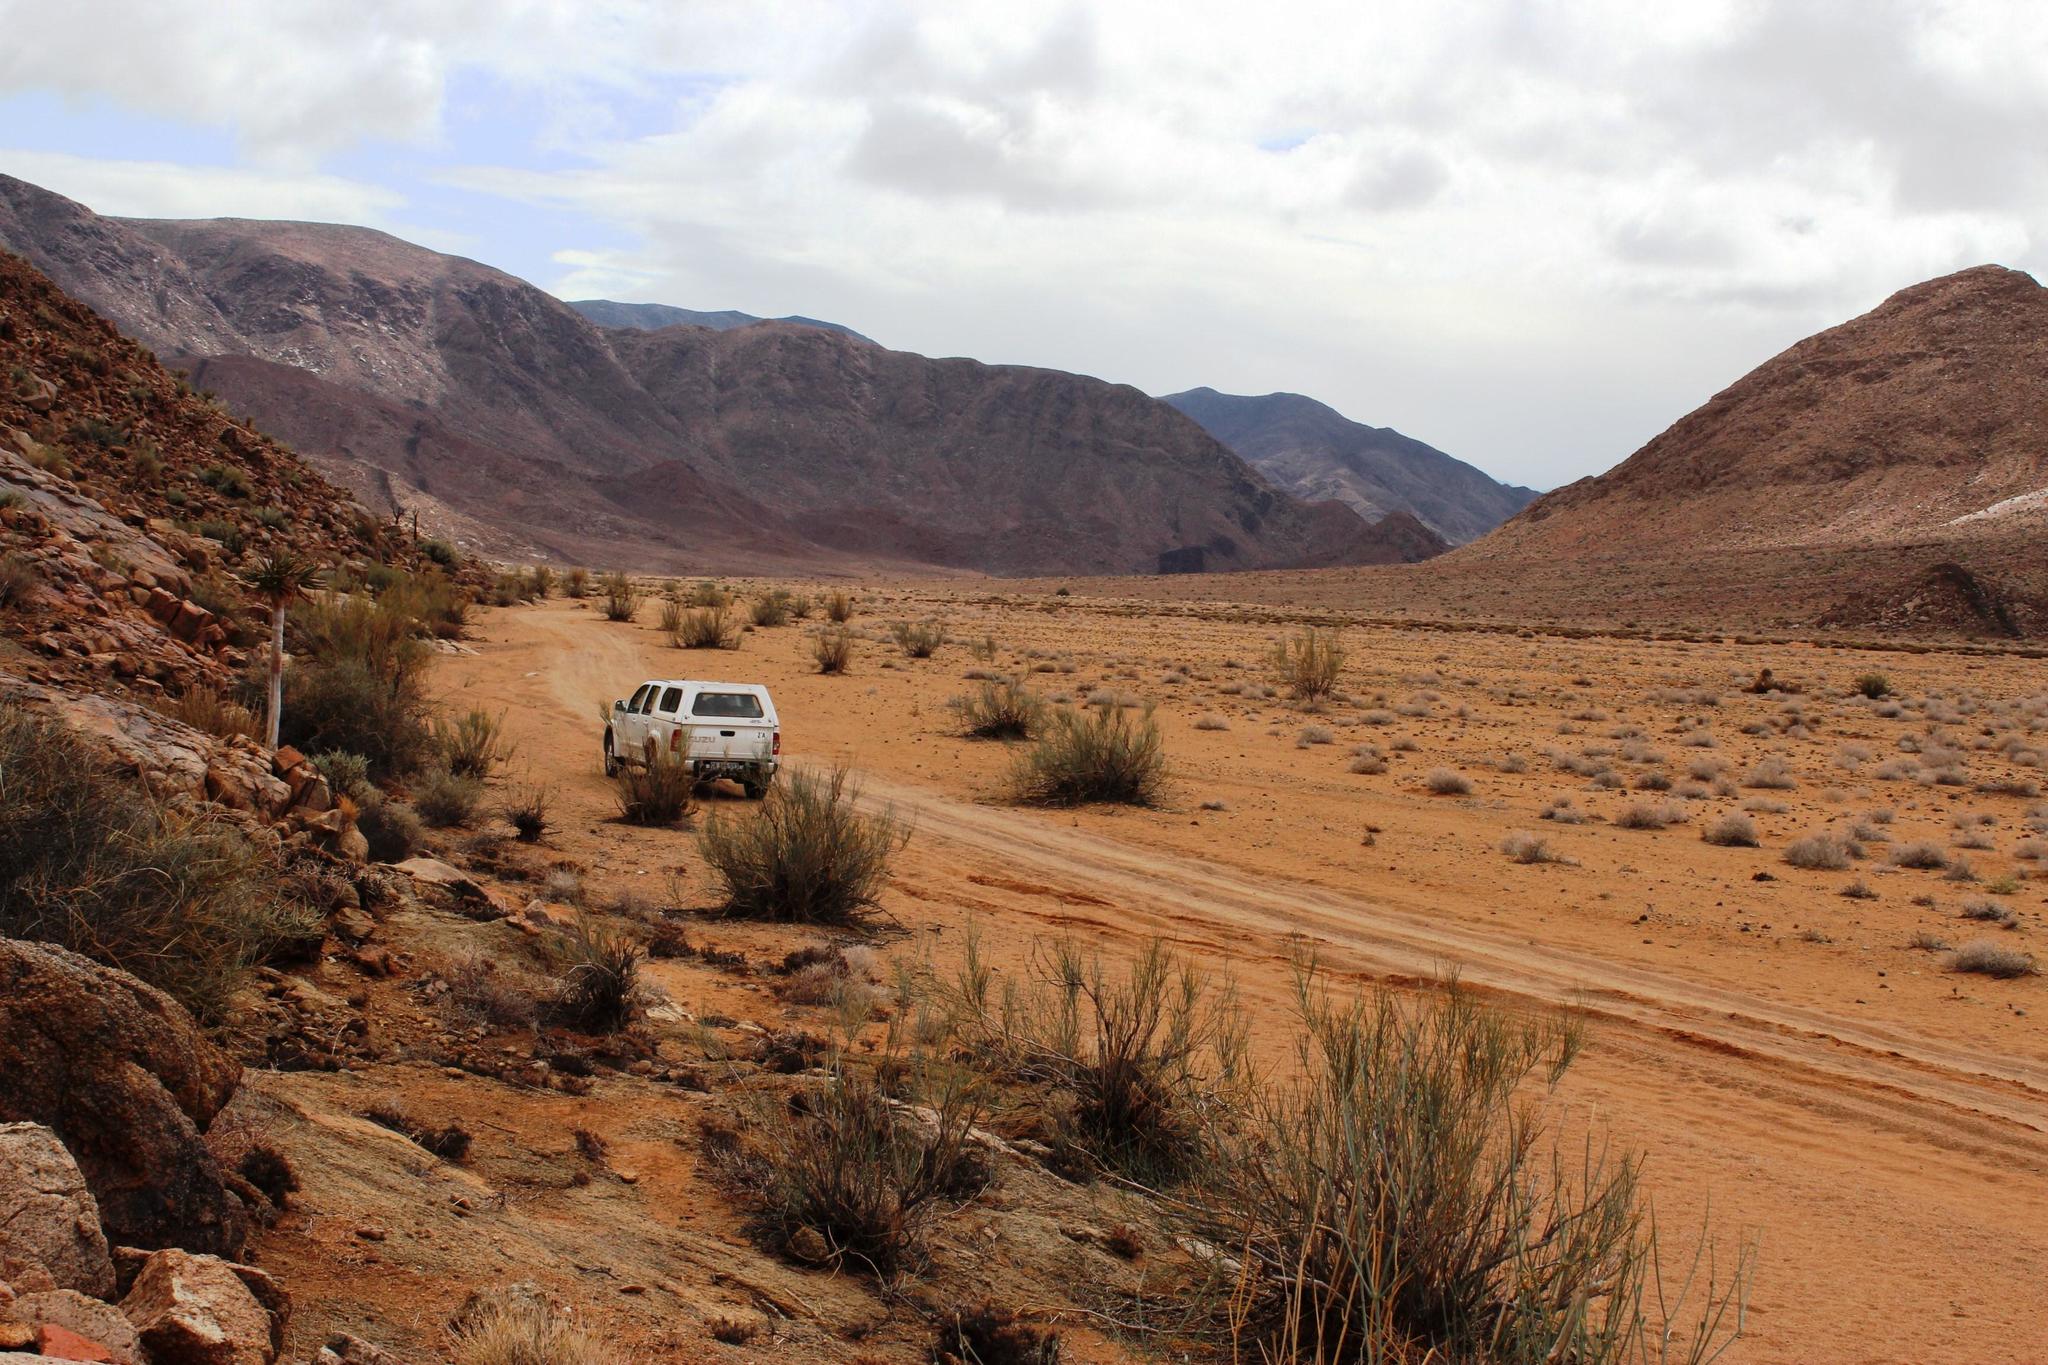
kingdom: Plantae
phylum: Tracheophyta
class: Liliopsida
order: Asparagales
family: Asphodelaceae
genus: Aloidendron
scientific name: Aloidendron dichotomum
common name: Quiver tree
